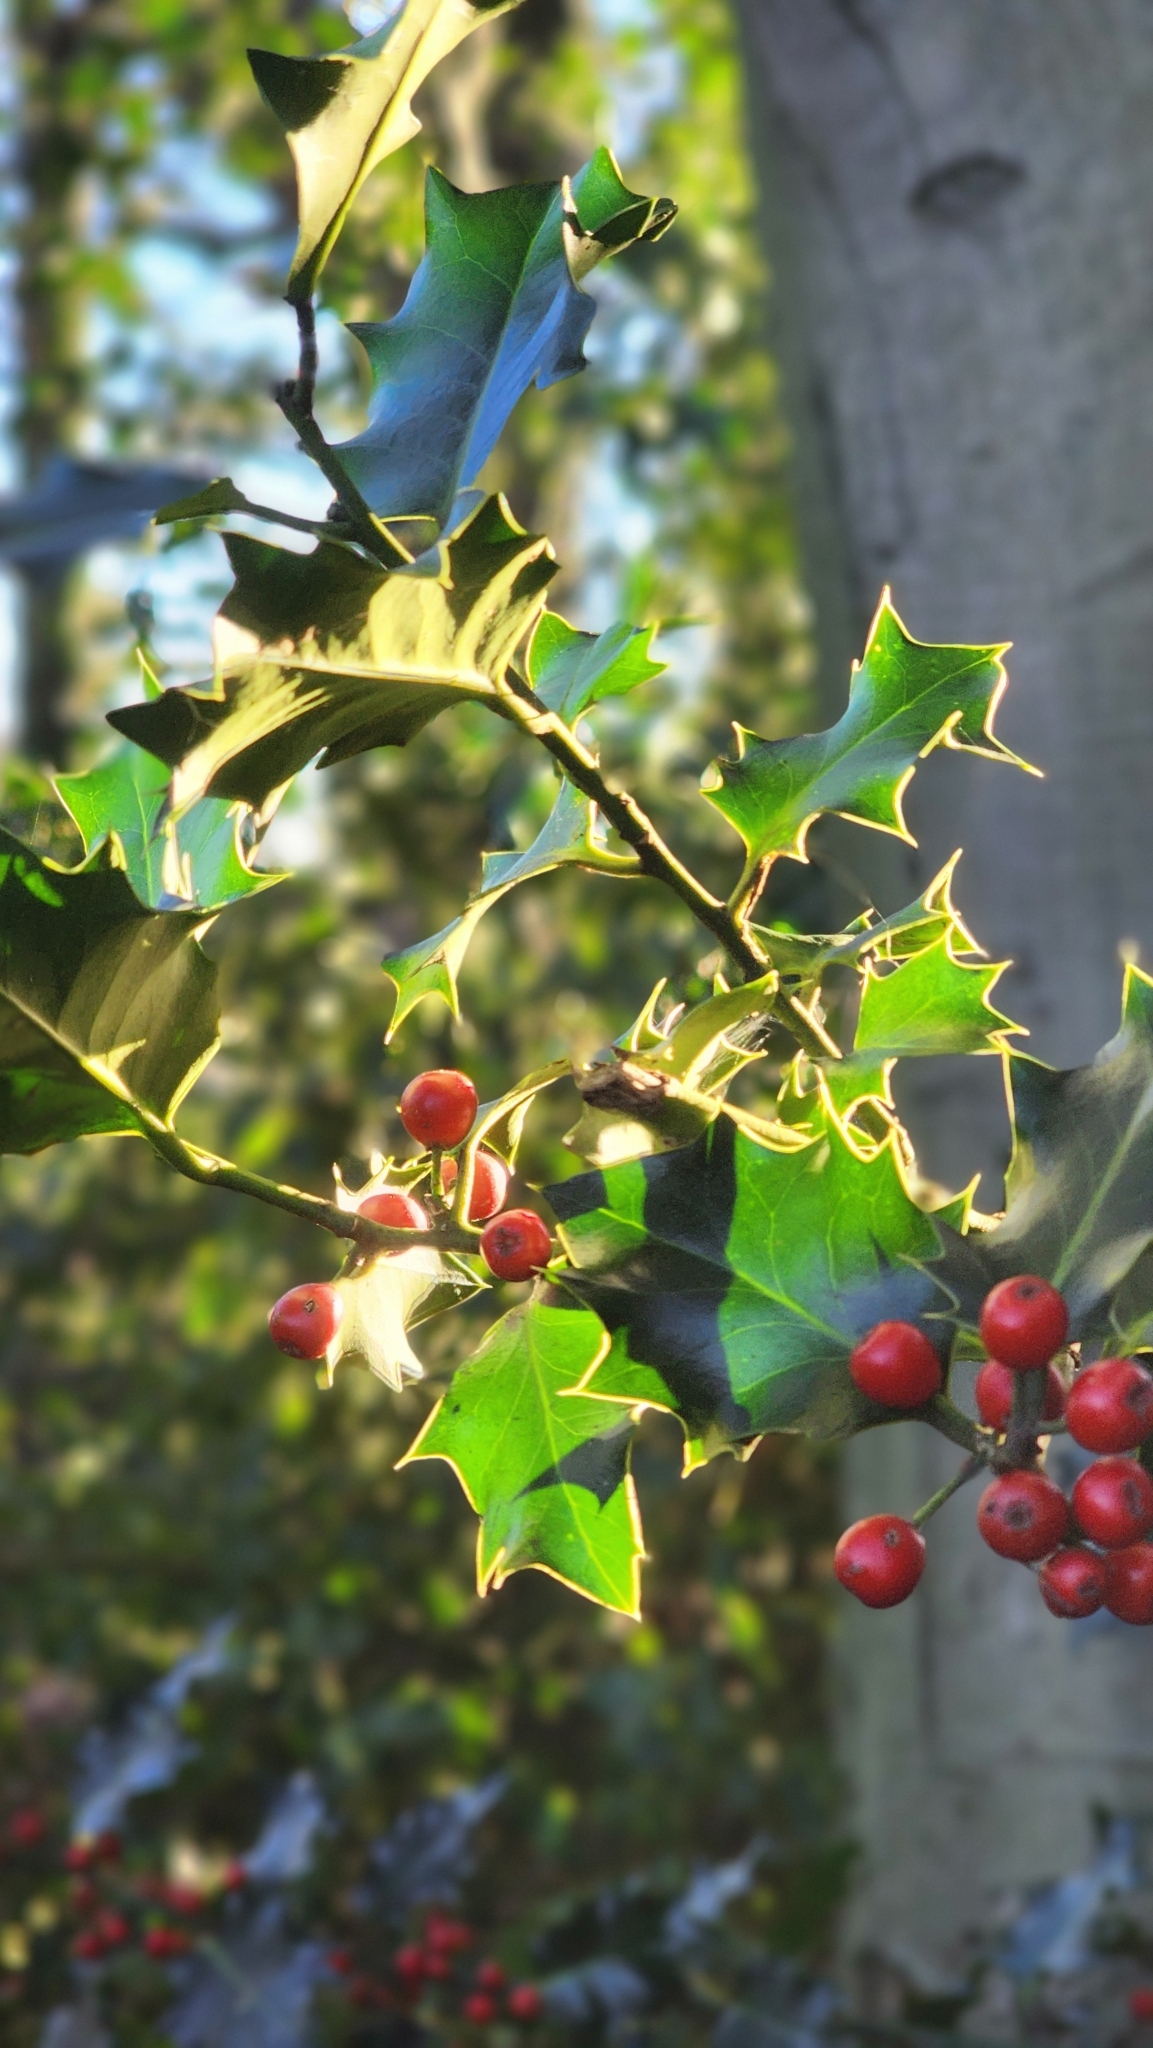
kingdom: Plantae
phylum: Tracheophyta
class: Magnoliopsida
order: Aquifoliales
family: Aquifoliaceae
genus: Ilex
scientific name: Ilex aquifolium
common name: English holly
